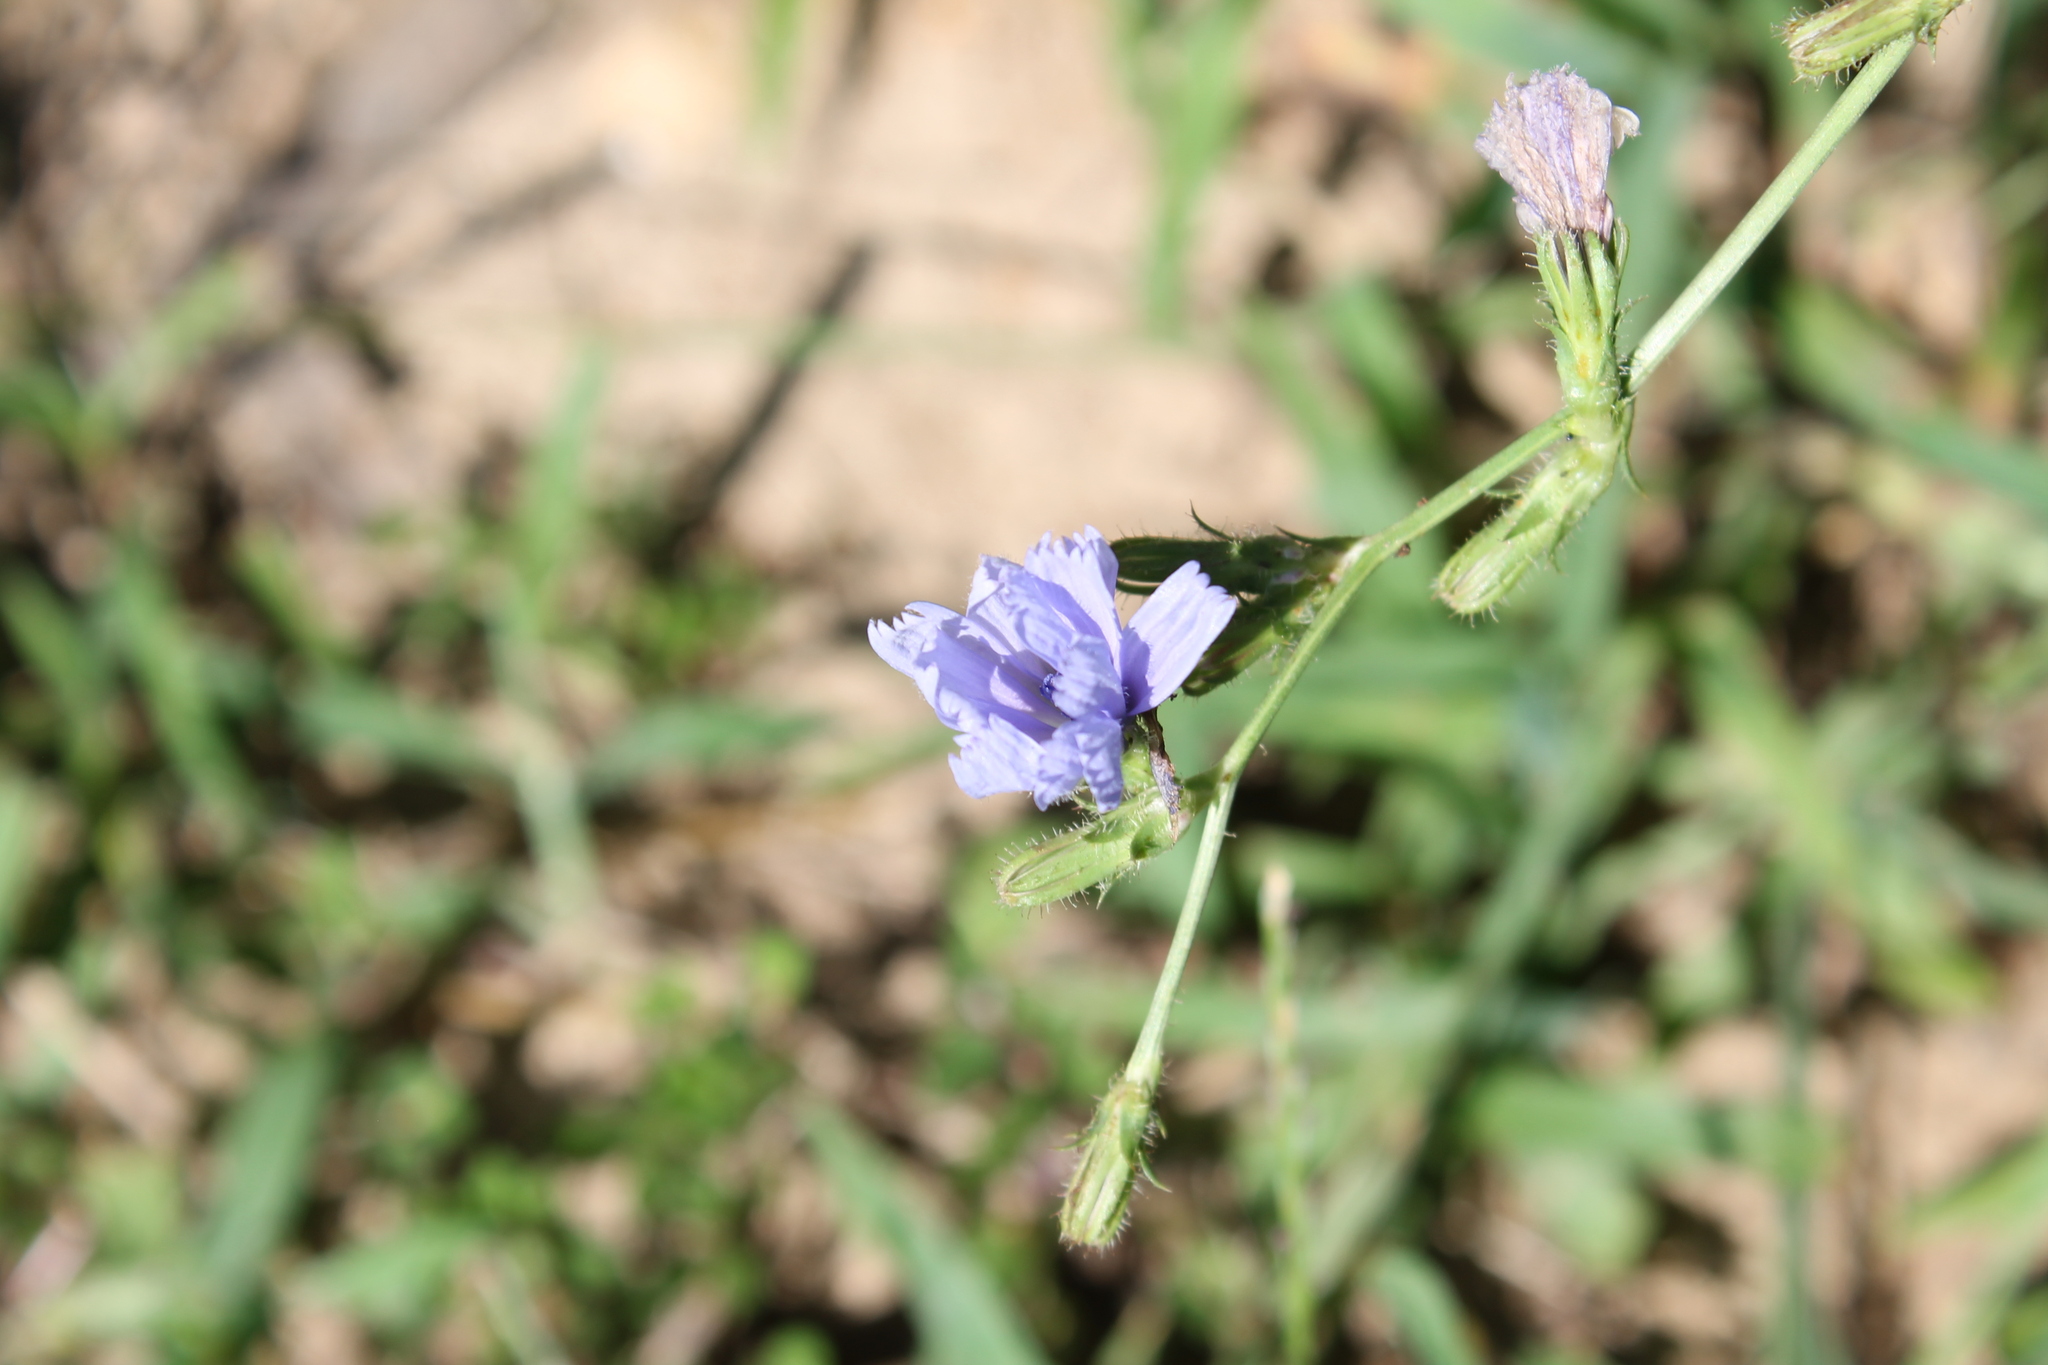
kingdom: Plantae
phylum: Tracheophyta
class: Magnoliopsida
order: Asterales
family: Asteraceae
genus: Cichorium
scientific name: Cichorium intybus
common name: Chicory
